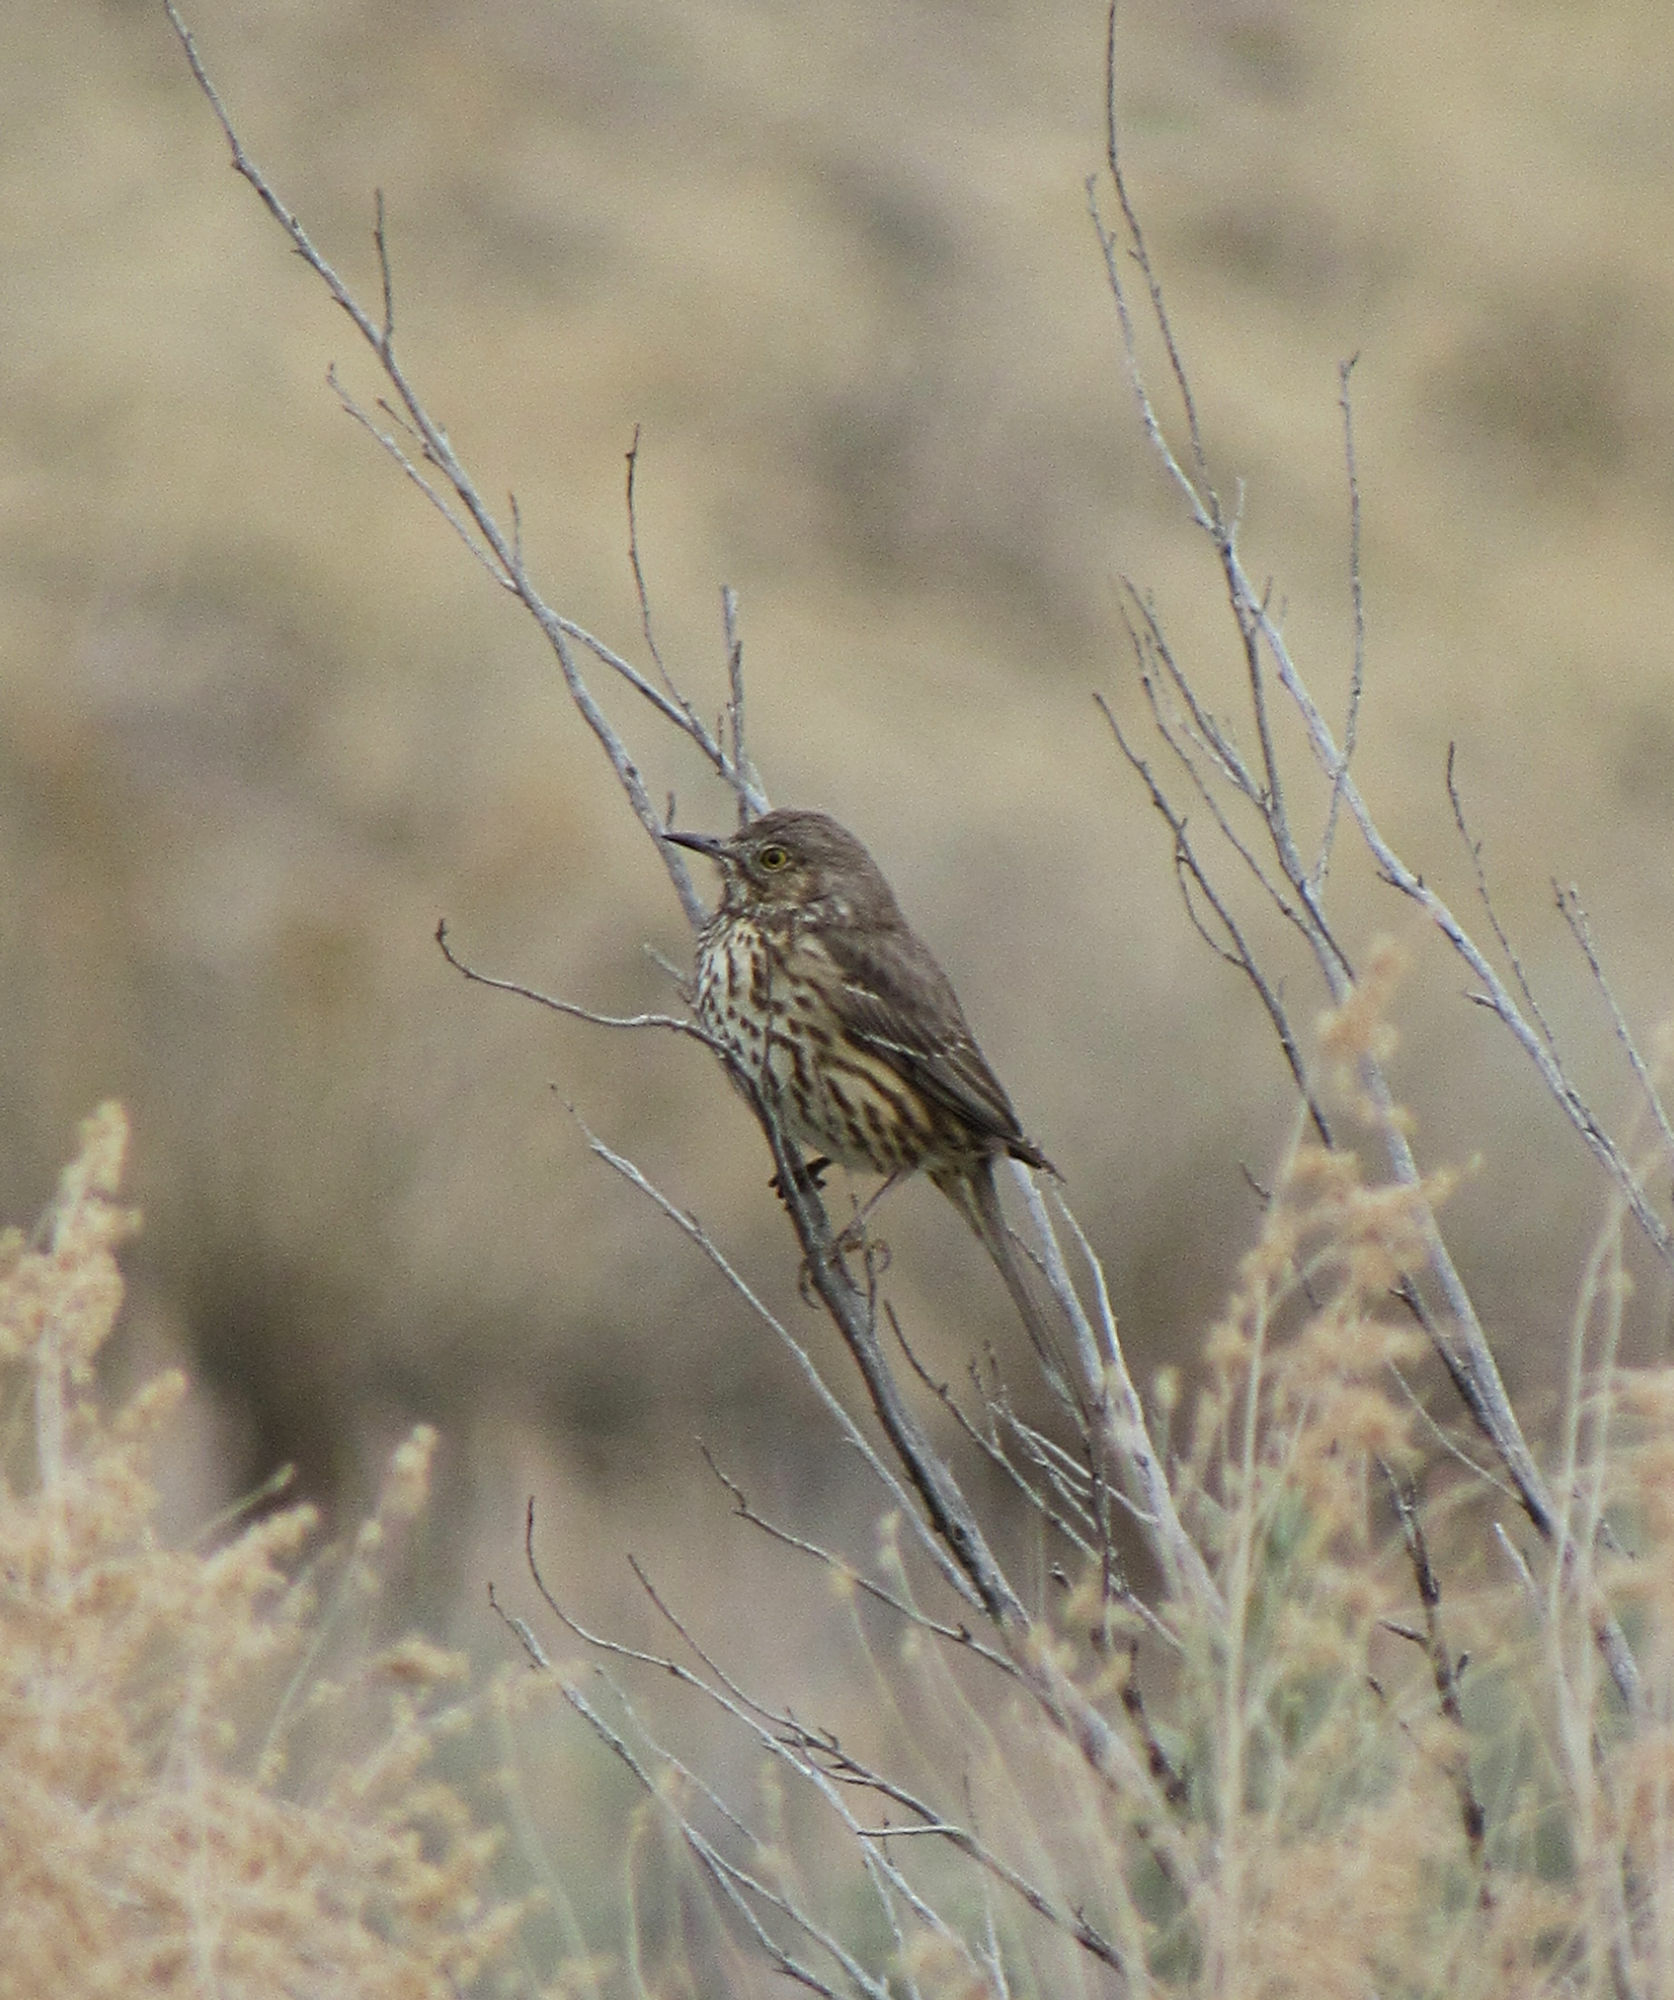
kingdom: Animalia
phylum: Chordata
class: Aves
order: Passeriformes
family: Mimidae
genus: Oreoscoptes
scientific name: Oreoscoptes montanus
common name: Sage thrasher
